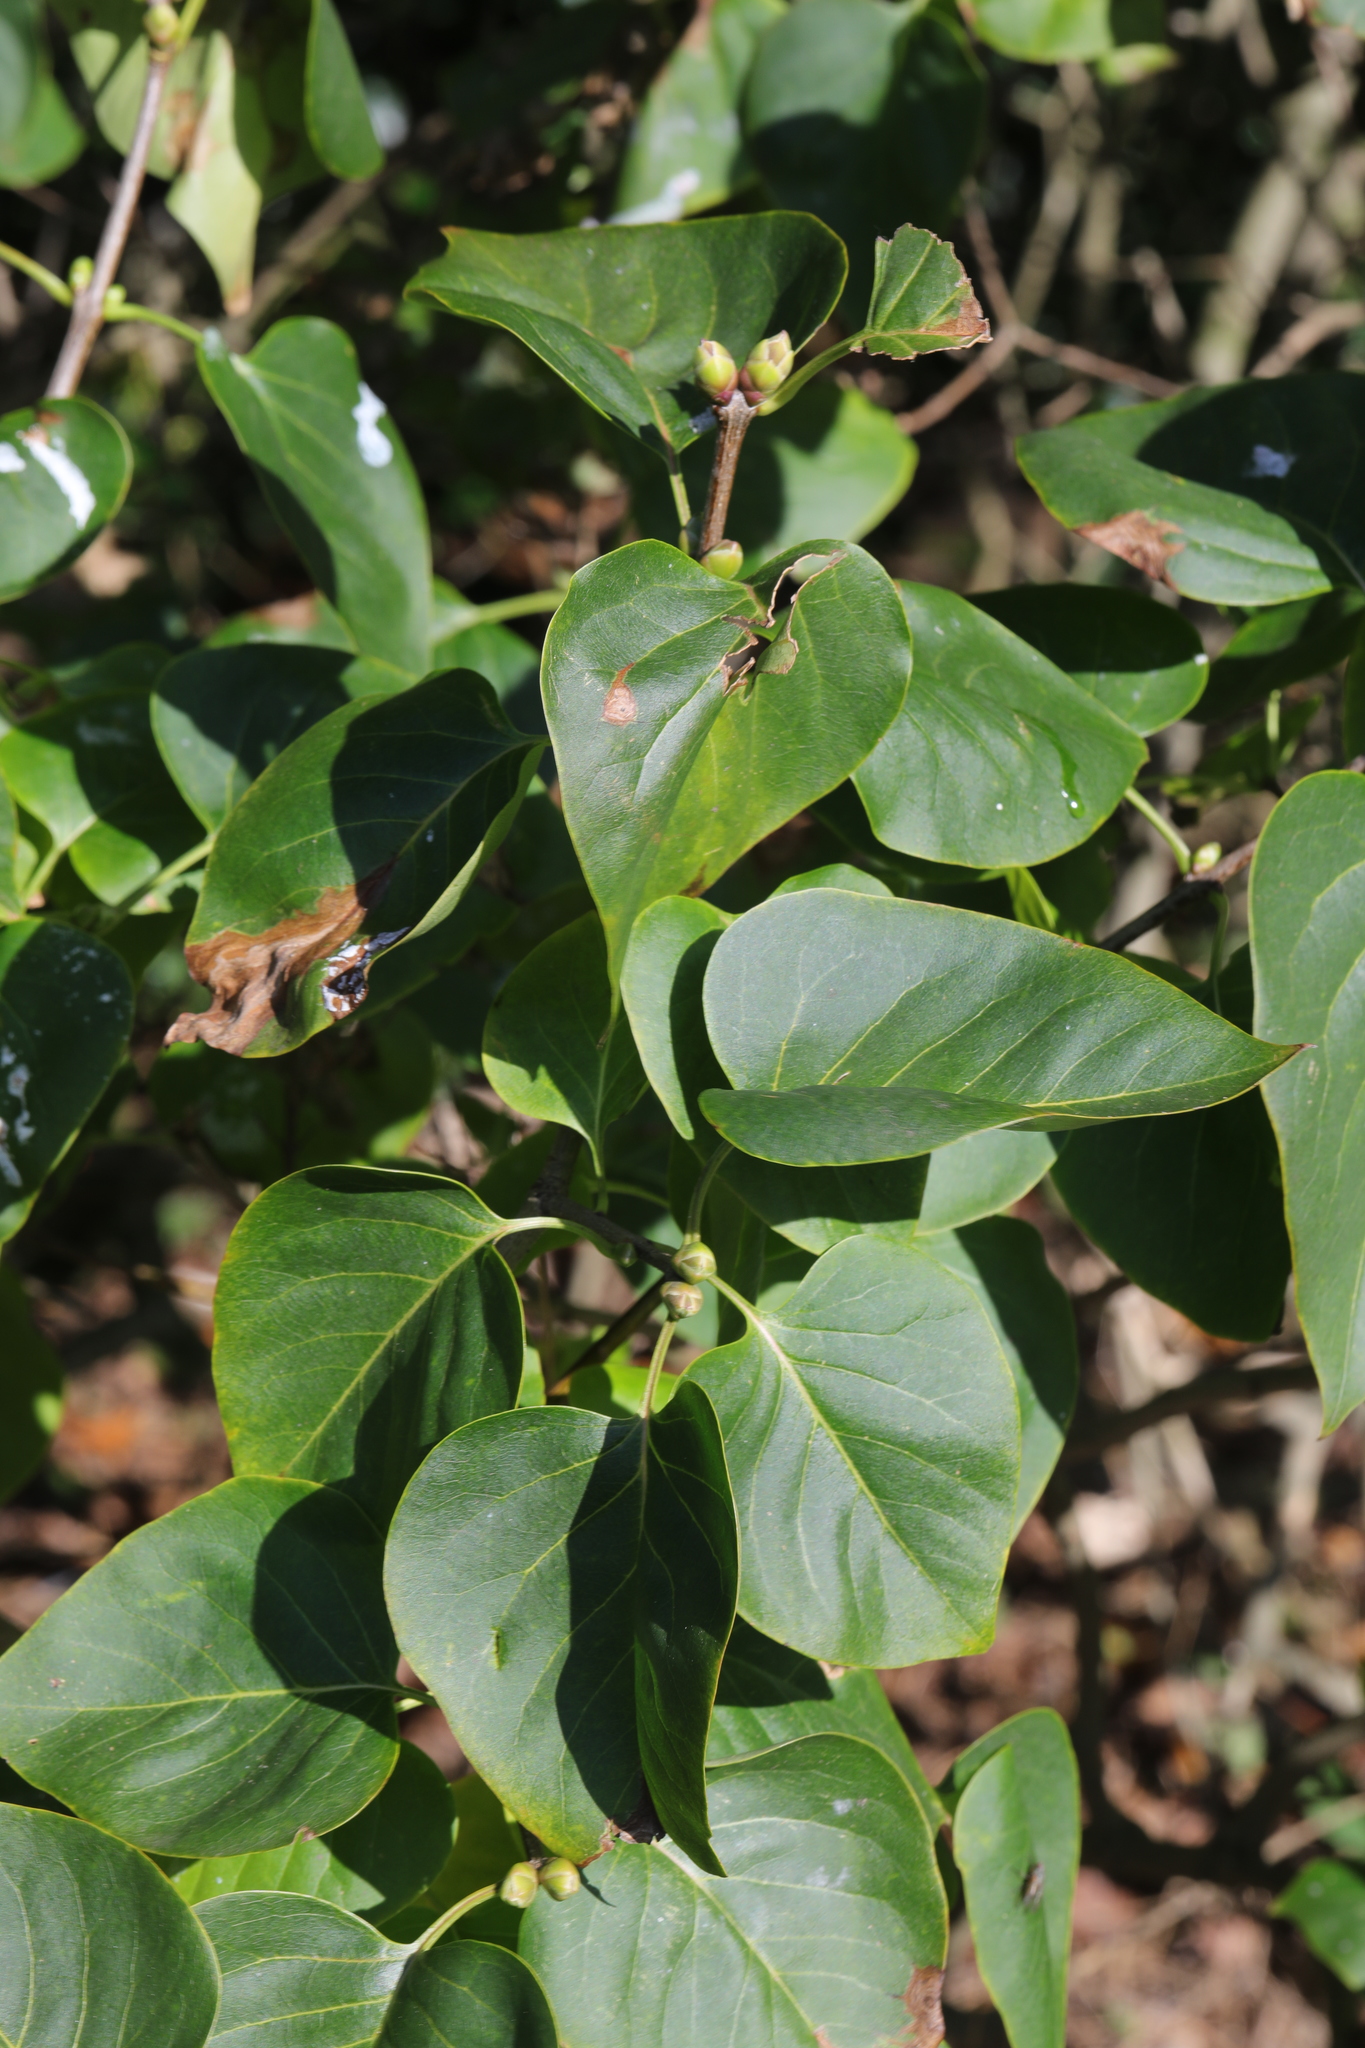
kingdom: Plantae
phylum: Tracheophyta
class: Magnoliopsida
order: Lamiales
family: Oleaceae
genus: Syringa
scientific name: Syringa vulgaris
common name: Common lilac
